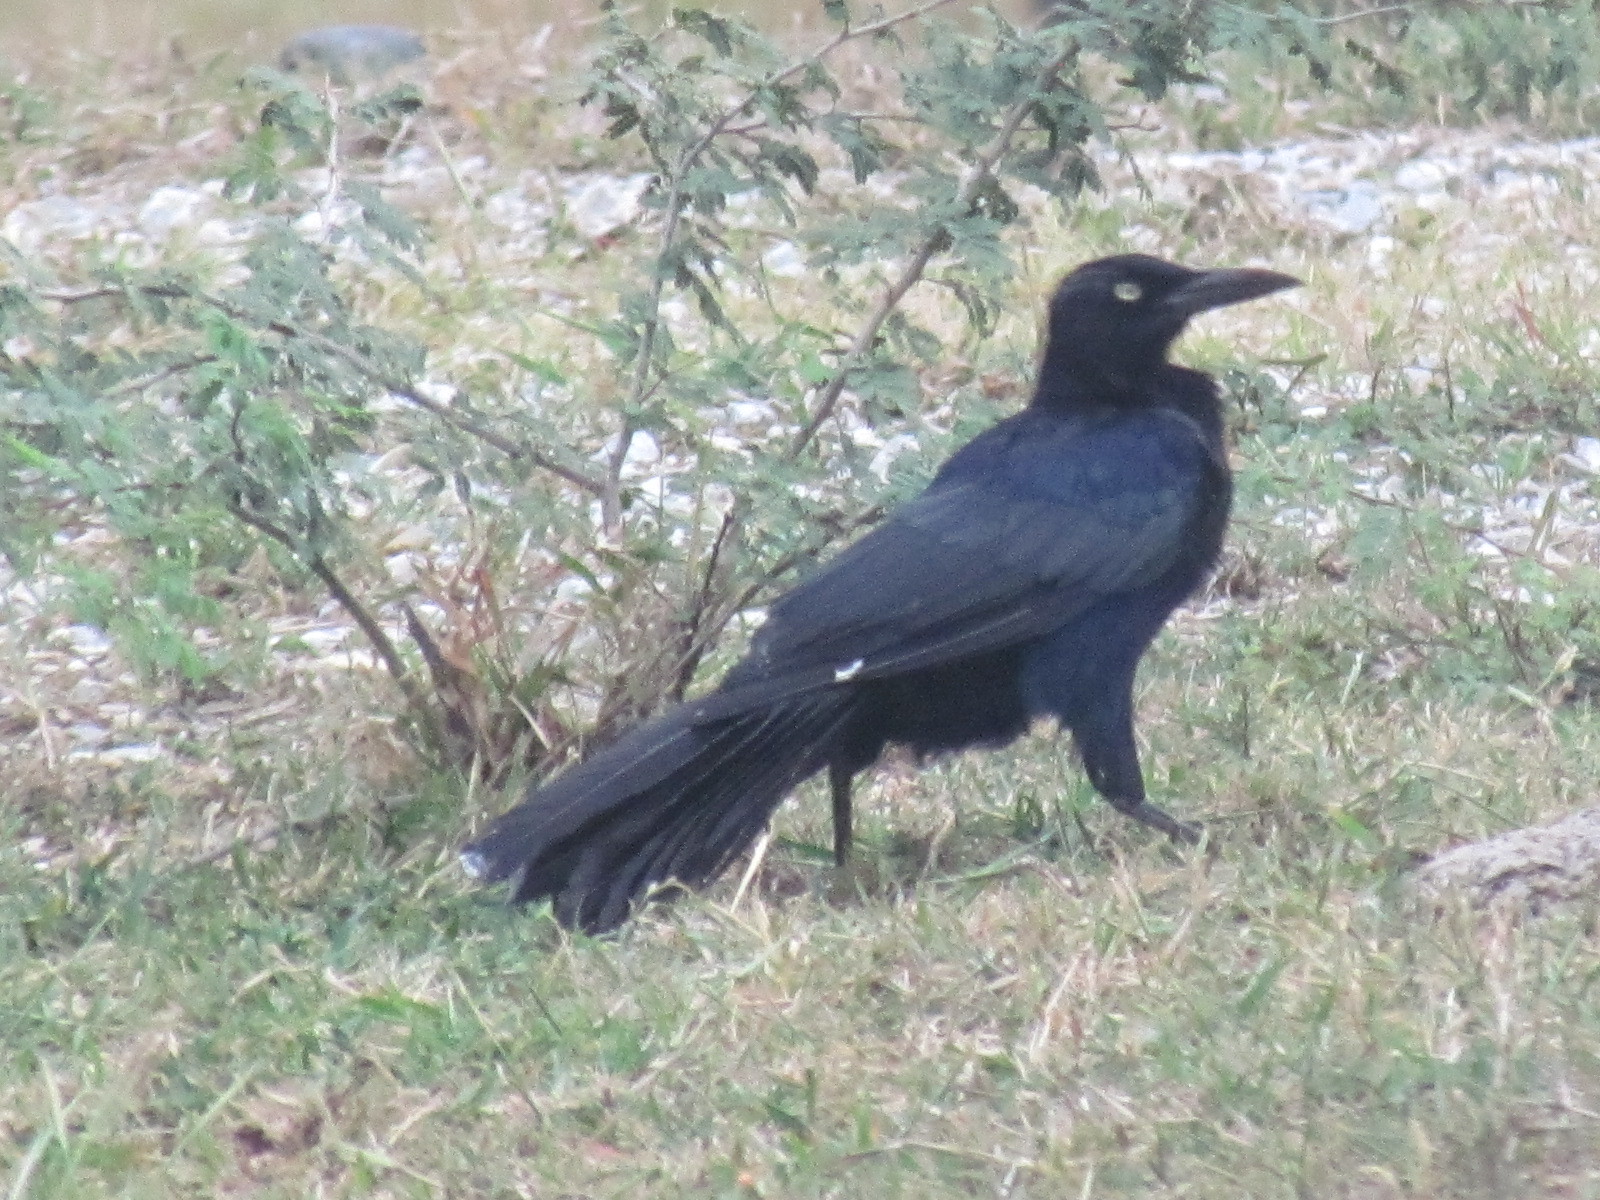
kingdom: Animalia
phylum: Chordata
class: Aves
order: Passeriformes
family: Icteridae
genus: Quiscalus
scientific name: Quiscalus mexicanus
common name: Great-tailed grackle
